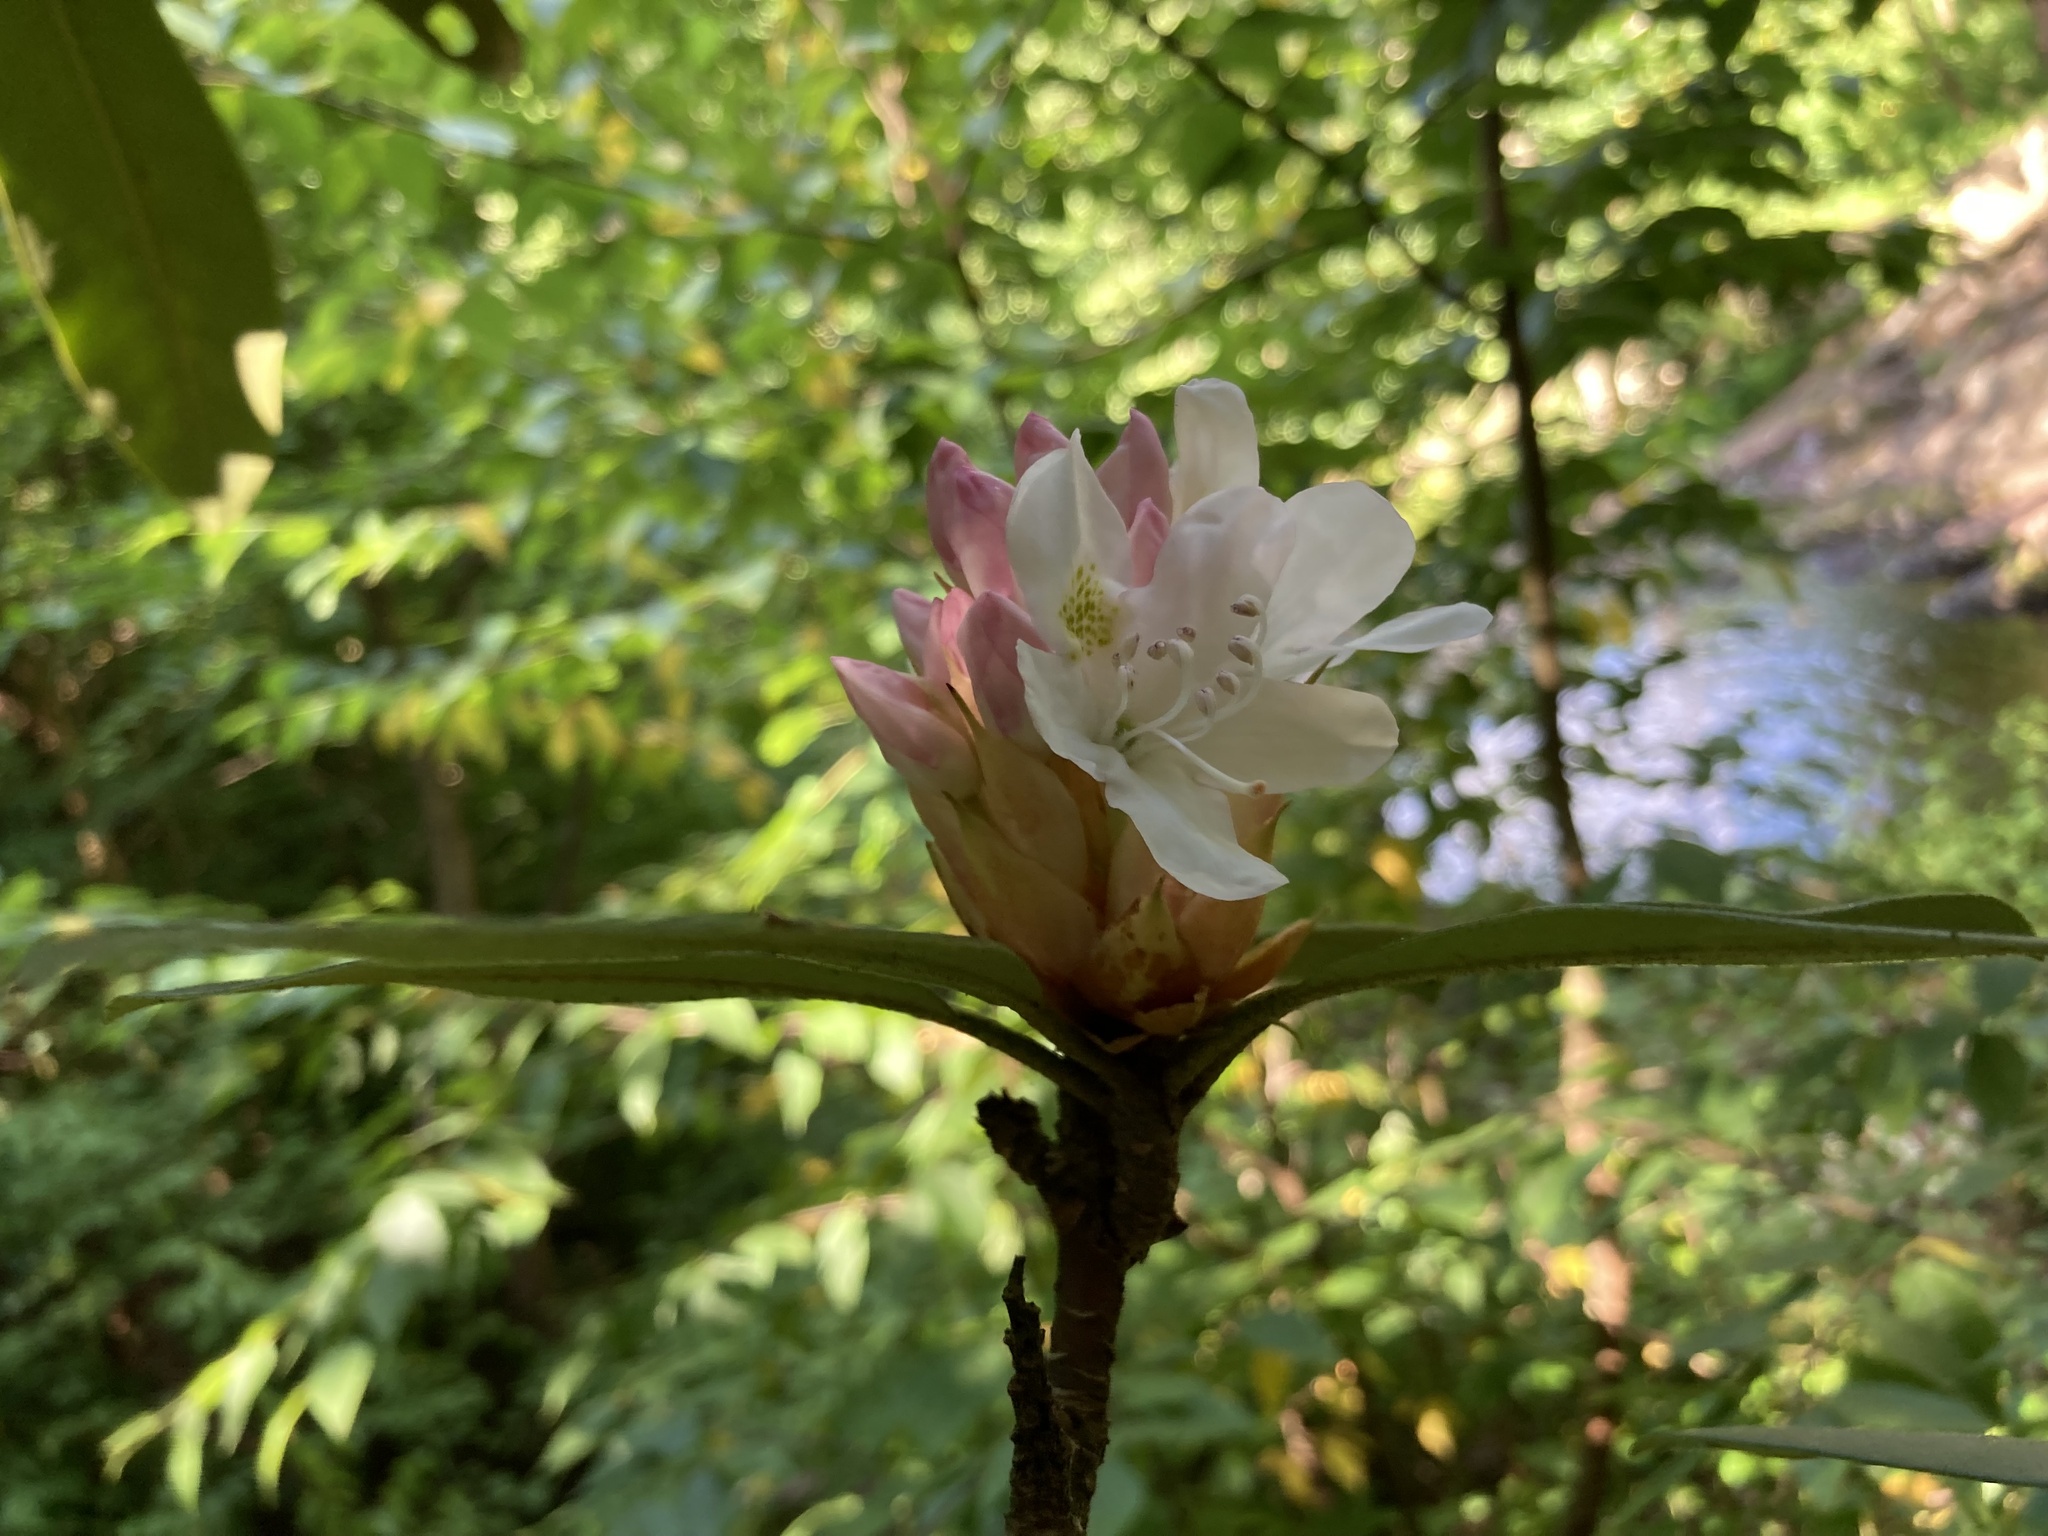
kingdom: Plantae
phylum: Tracheophyta
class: Magnoliopsida
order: Ericales
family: Ericaceae
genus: Rhododendron
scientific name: Rhododendron maximum
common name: Great rhododendron
